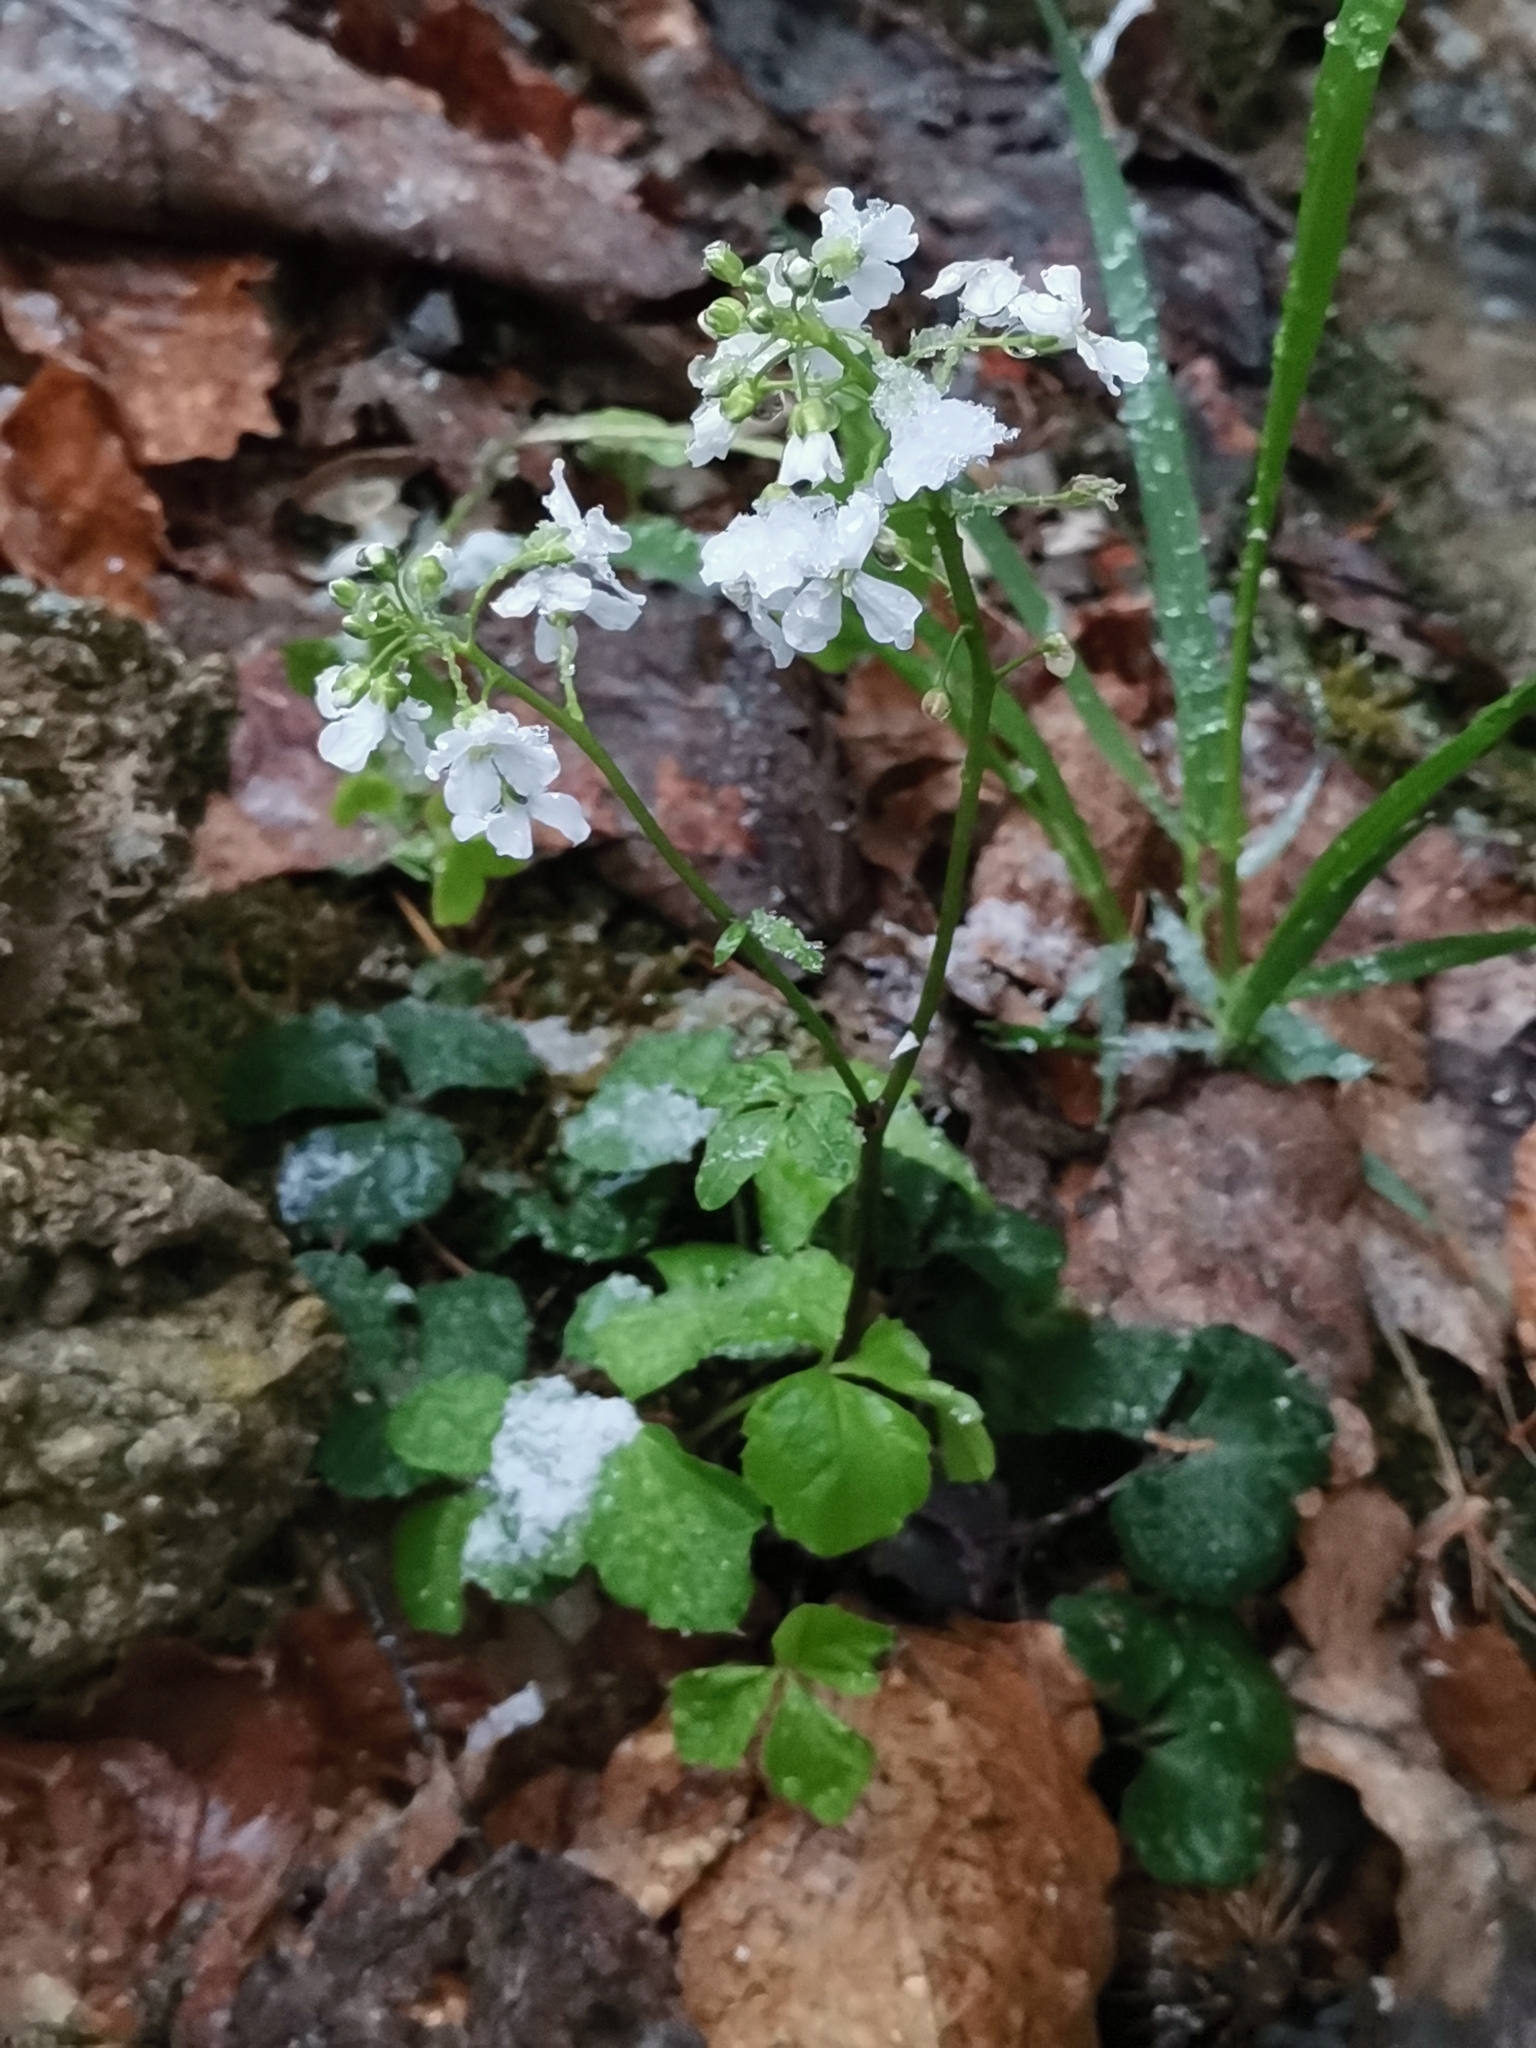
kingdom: Plantae
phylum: Tracheophyta
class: Magnoliopsida
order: Brassicales
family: Brassicaceae
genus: Cardamine
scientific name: Cardamine trifolia
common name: Trefoil cress
